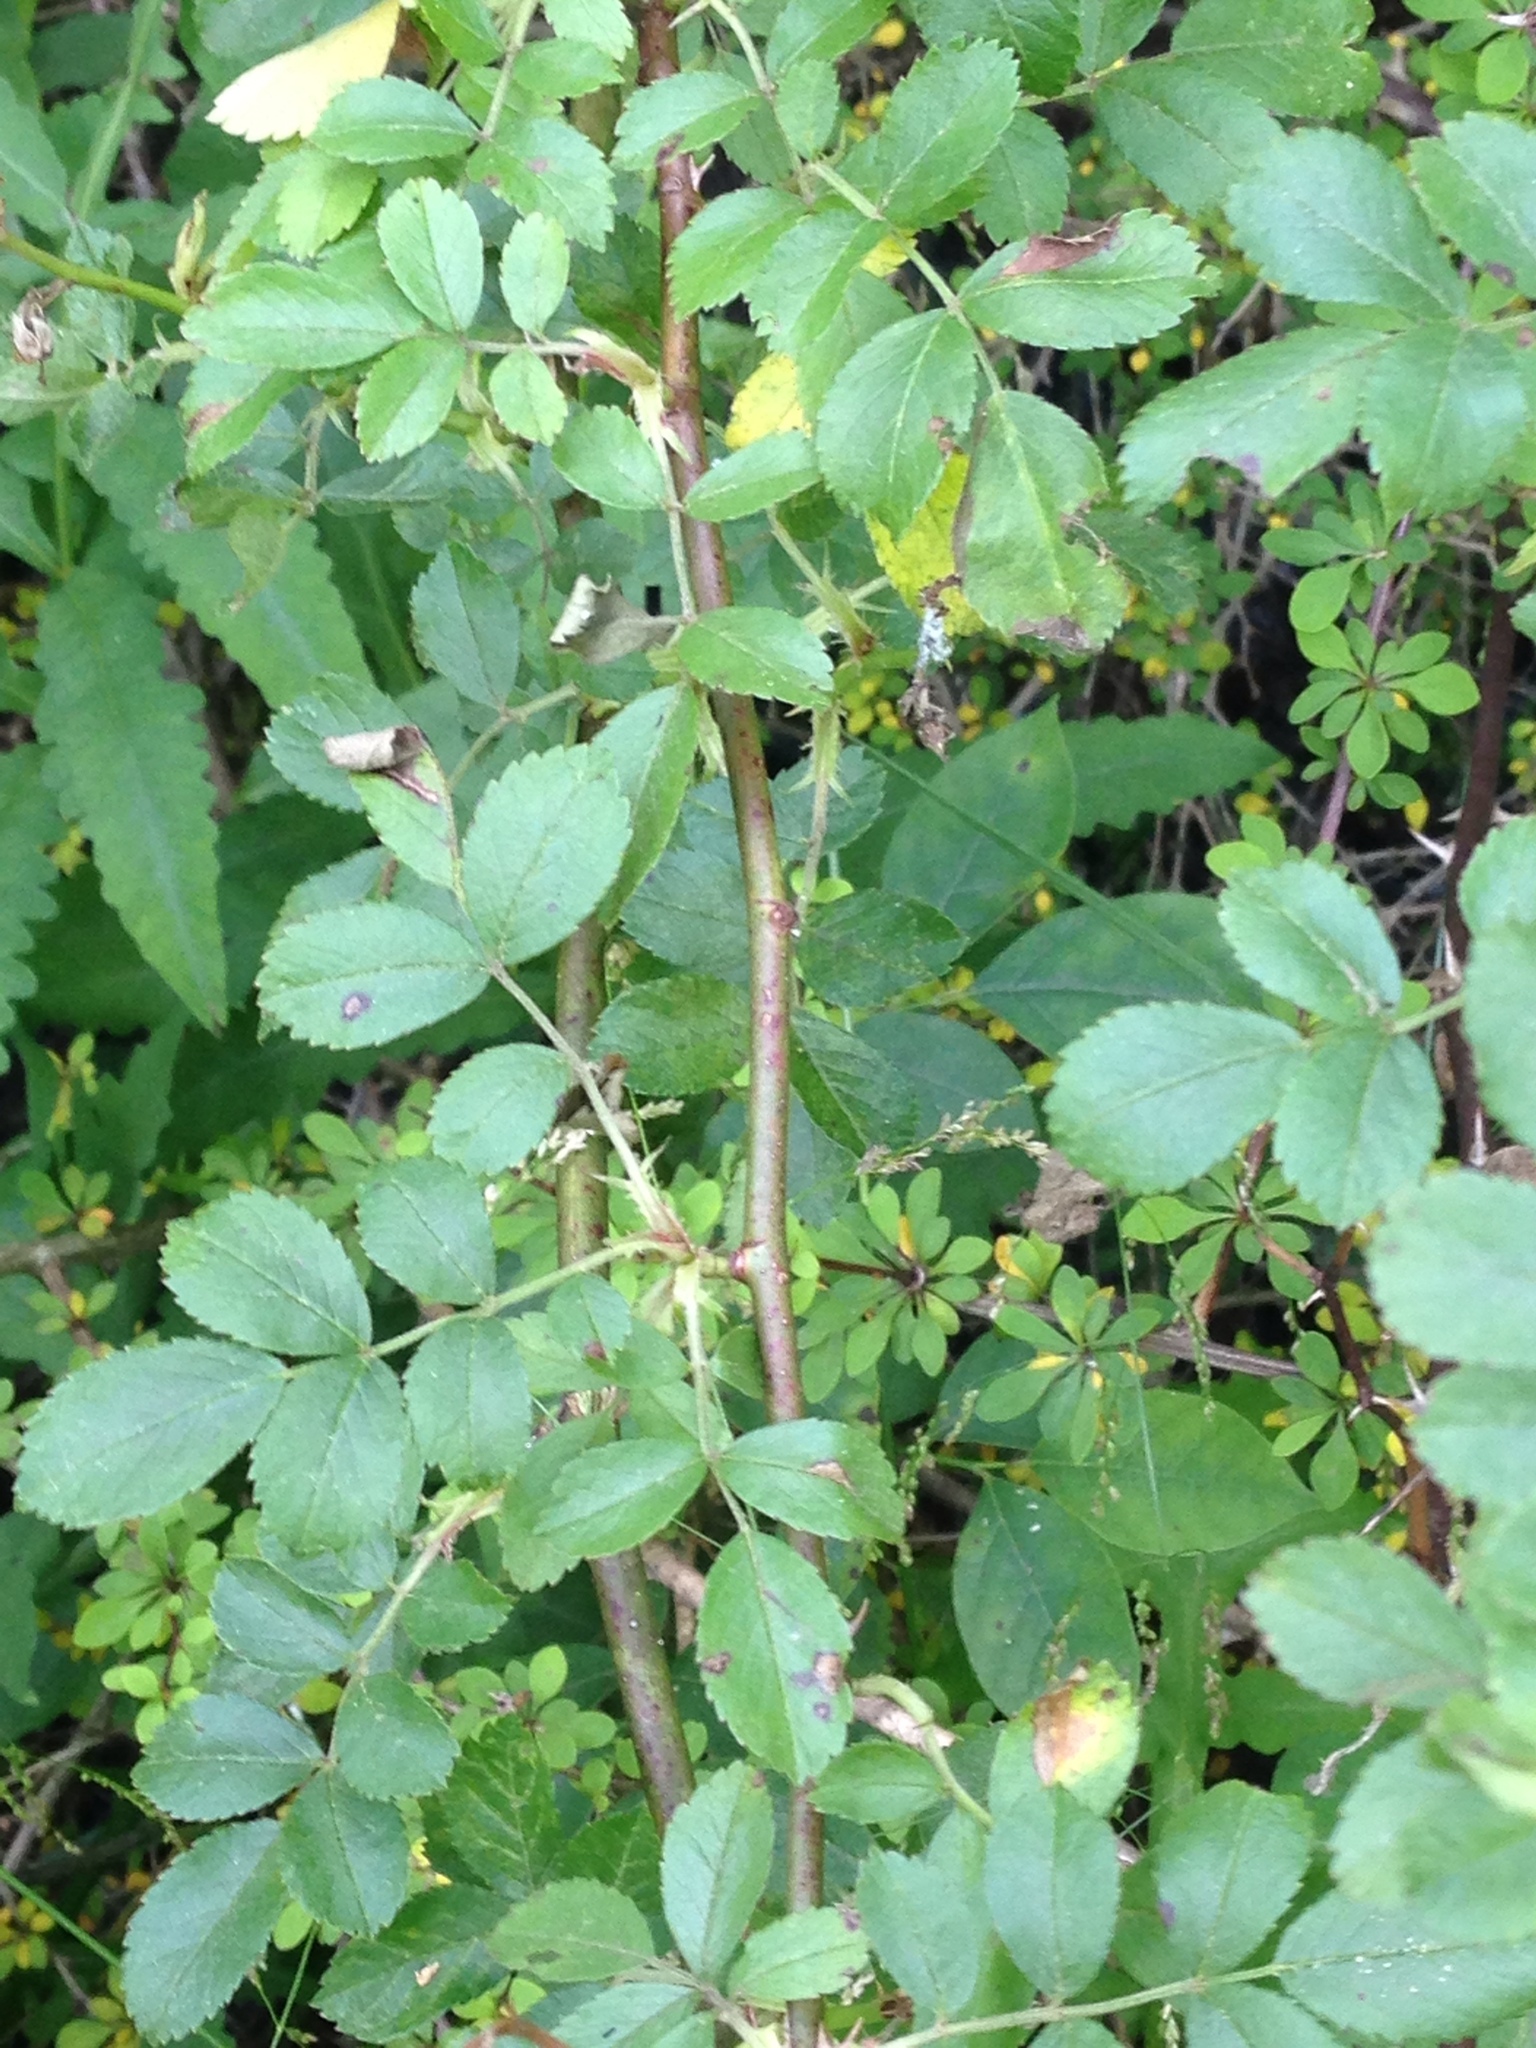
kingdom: Plantae
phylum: Tracheophyta
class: Magnoliopsida
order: Rosales
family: Rosaceae
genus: Rosa
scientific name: Rosa multiflora
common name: Multiflora rose
